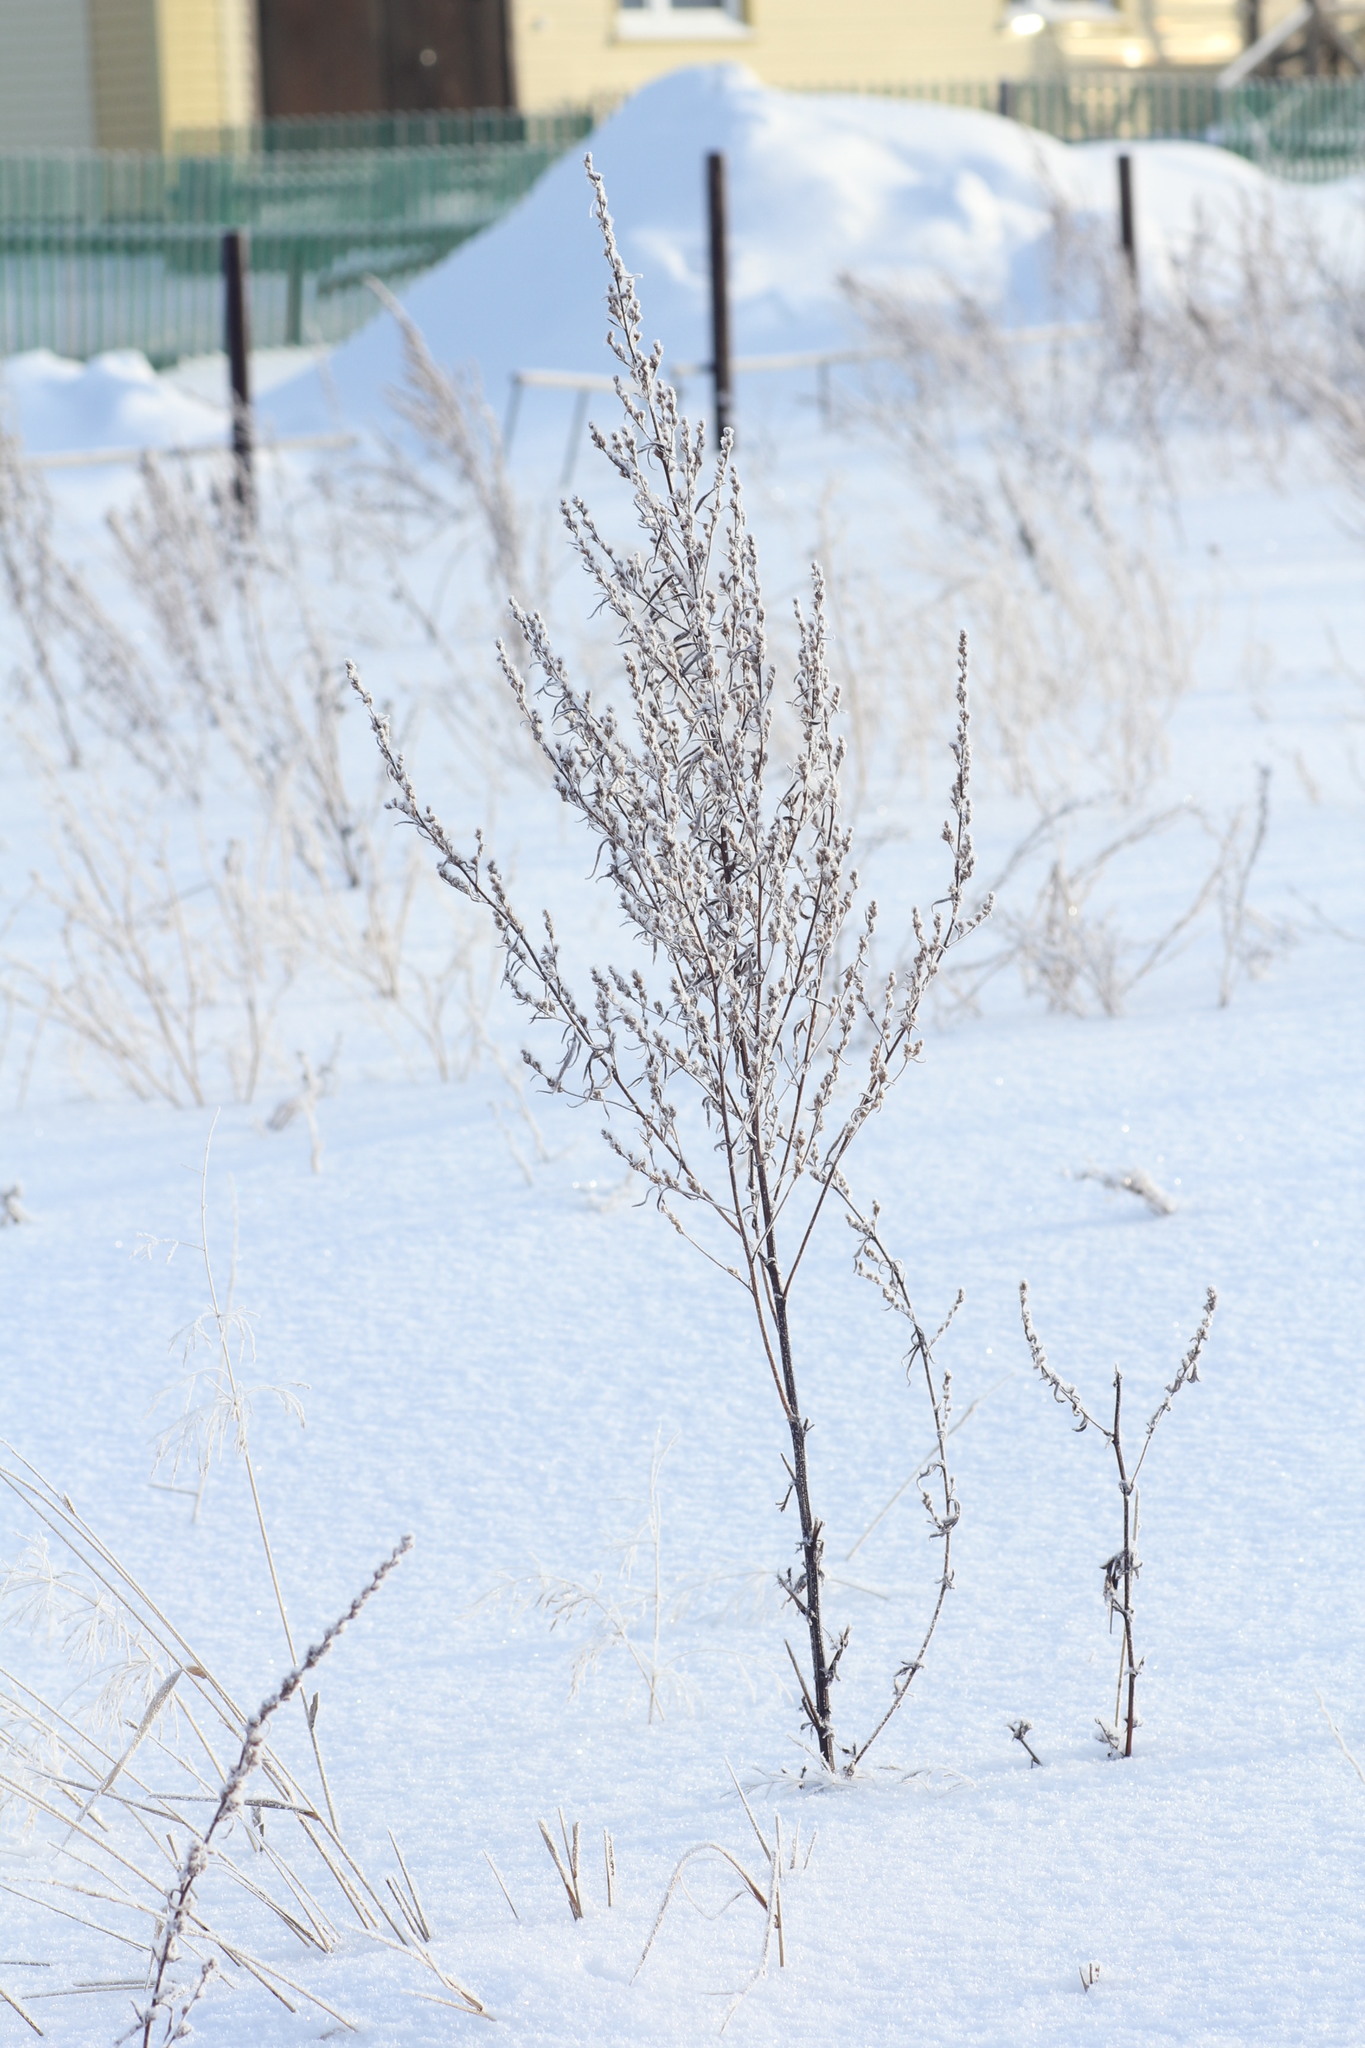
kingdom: Plantae
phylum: Tracheophyta
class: Magnoliopsida
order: Asterales
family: Asteraceae
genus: Artemisia
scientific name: Artemisia vulgaris
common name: Mugwort
